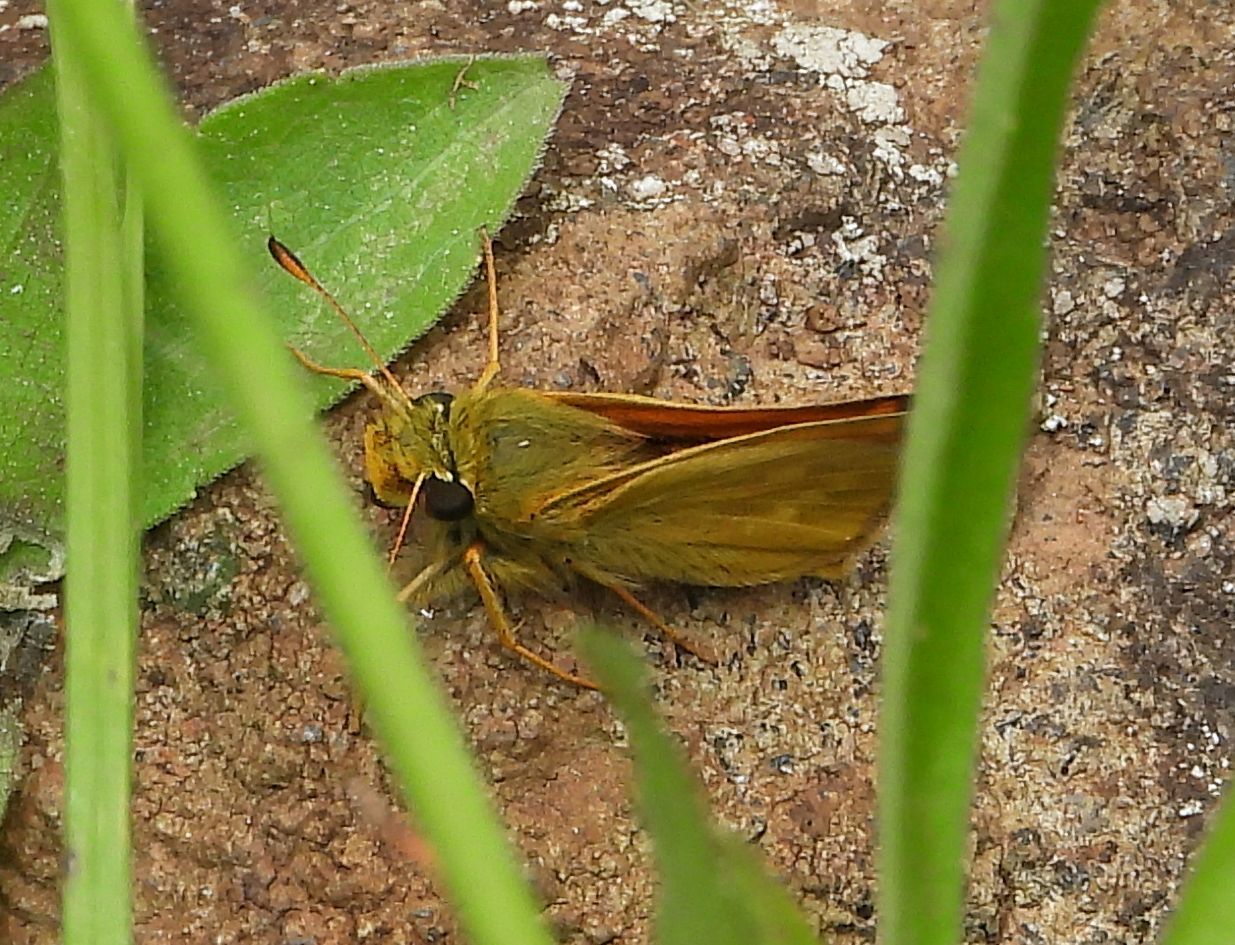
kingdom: Animalia
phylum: Arthropoda
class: Insecta
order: Lepidoptera
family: Hesperiidae
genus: Hesperia
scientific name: Hesperia sassacus
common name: Indian skipper
